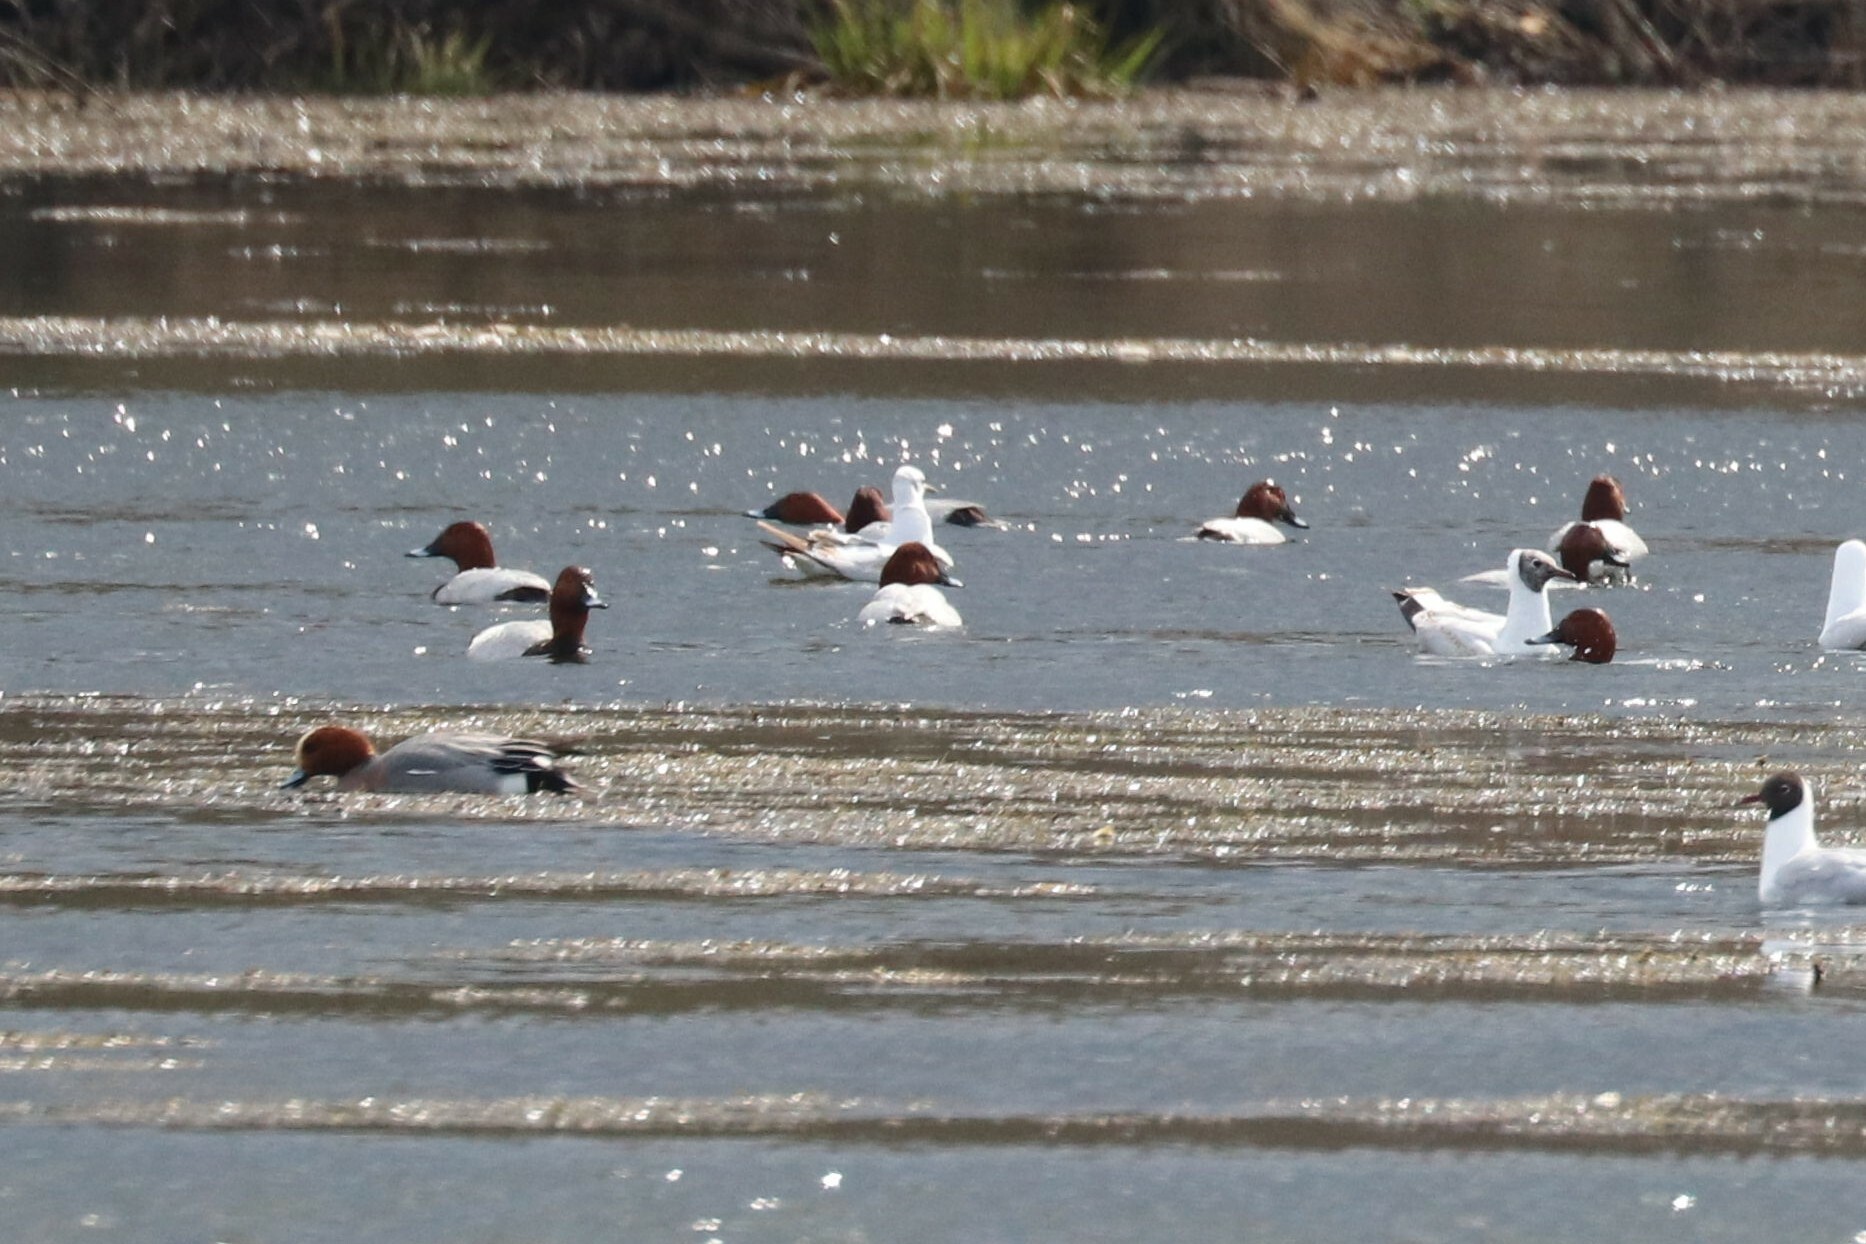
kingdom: Animalia
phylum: Chordata
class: Aves
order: Anseriformes
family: Anatidae
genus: Aythya
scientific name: Aythya ferina
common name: Common pochard
